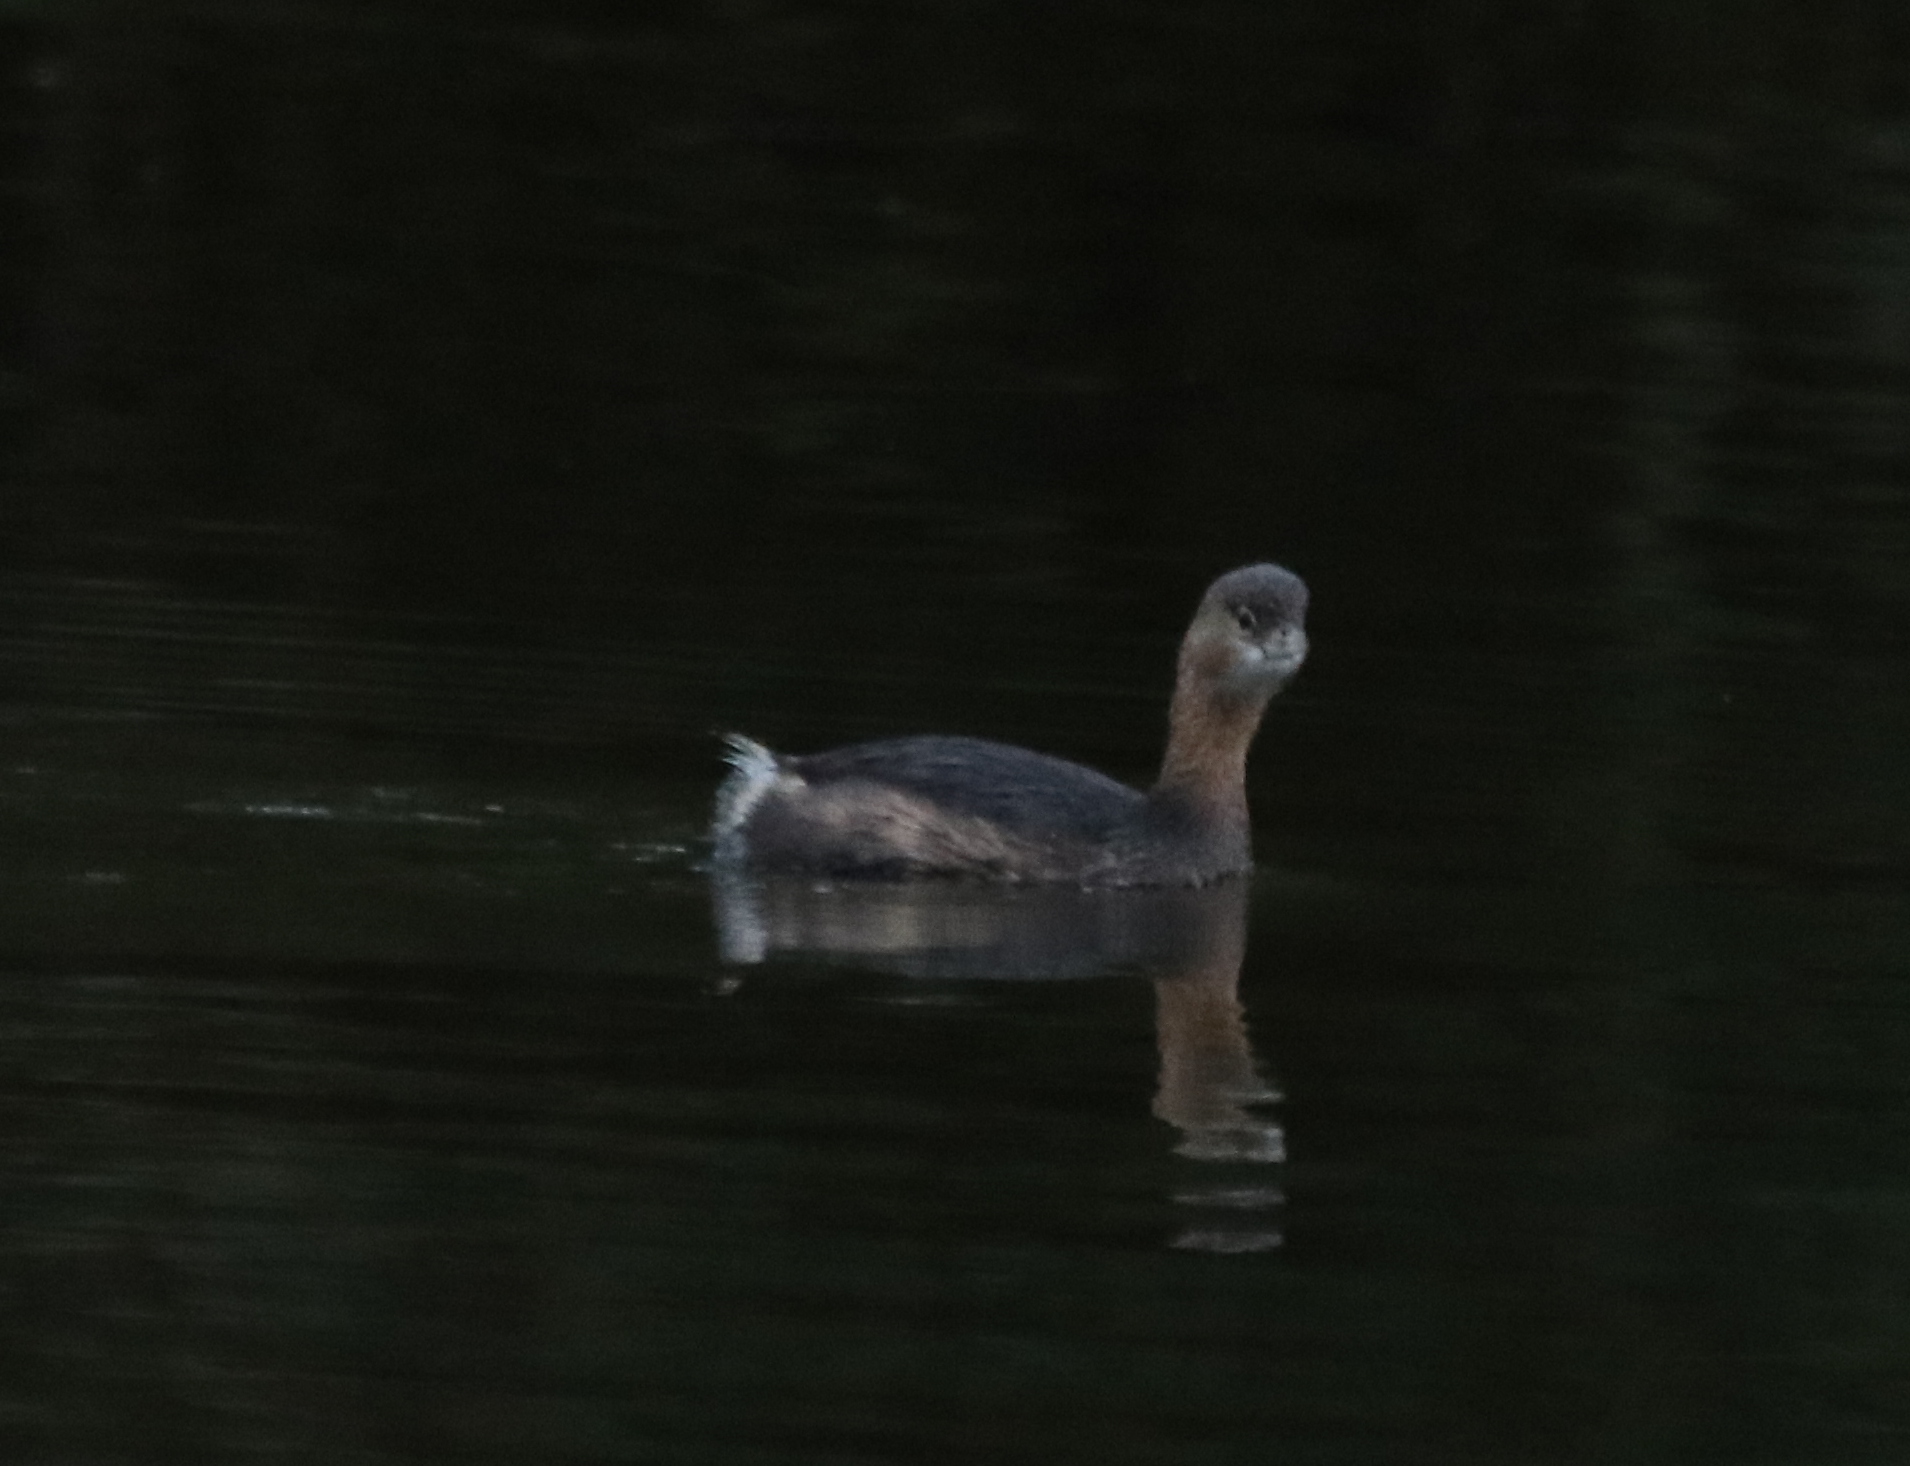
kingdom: Animalia
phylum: Chordata
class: Aves
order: Podicipediformes
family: Podicipedidae
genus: Podilymbus
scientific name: Podilymbus podiceps
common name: Pied-billed grebe
